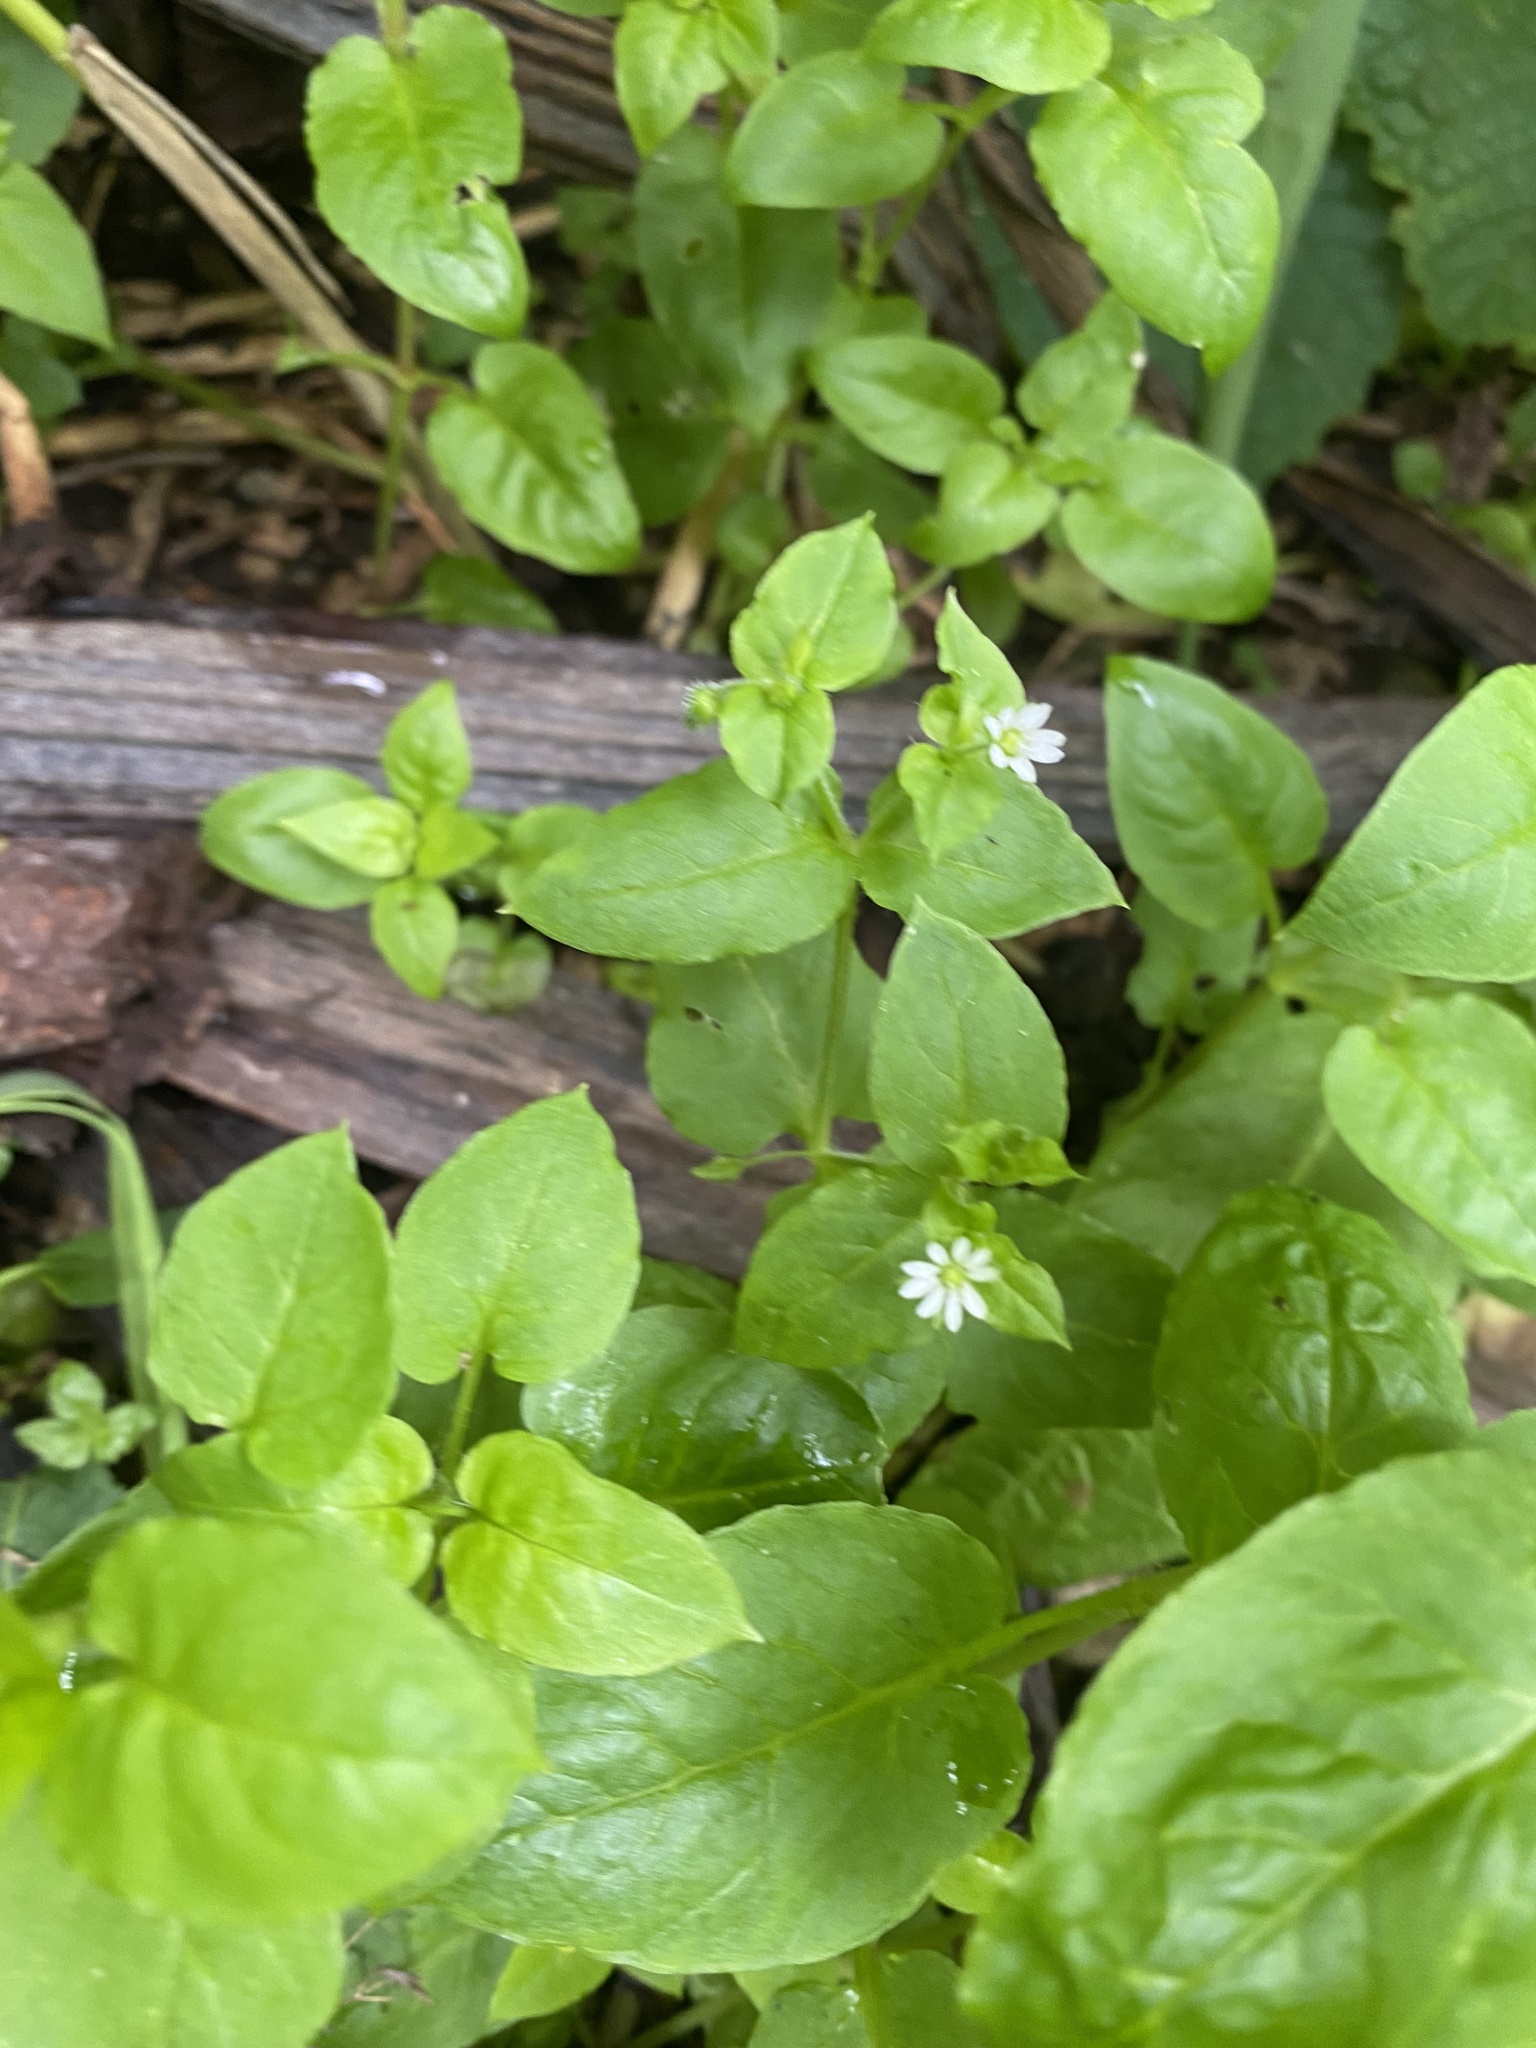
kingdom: Plantae
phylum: Tracheophyta
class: Magnoliopsida
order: Caryophyllales
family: Caryophyllaceae
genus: Stellaria
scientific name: Stellaria media
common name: Common chickweed
